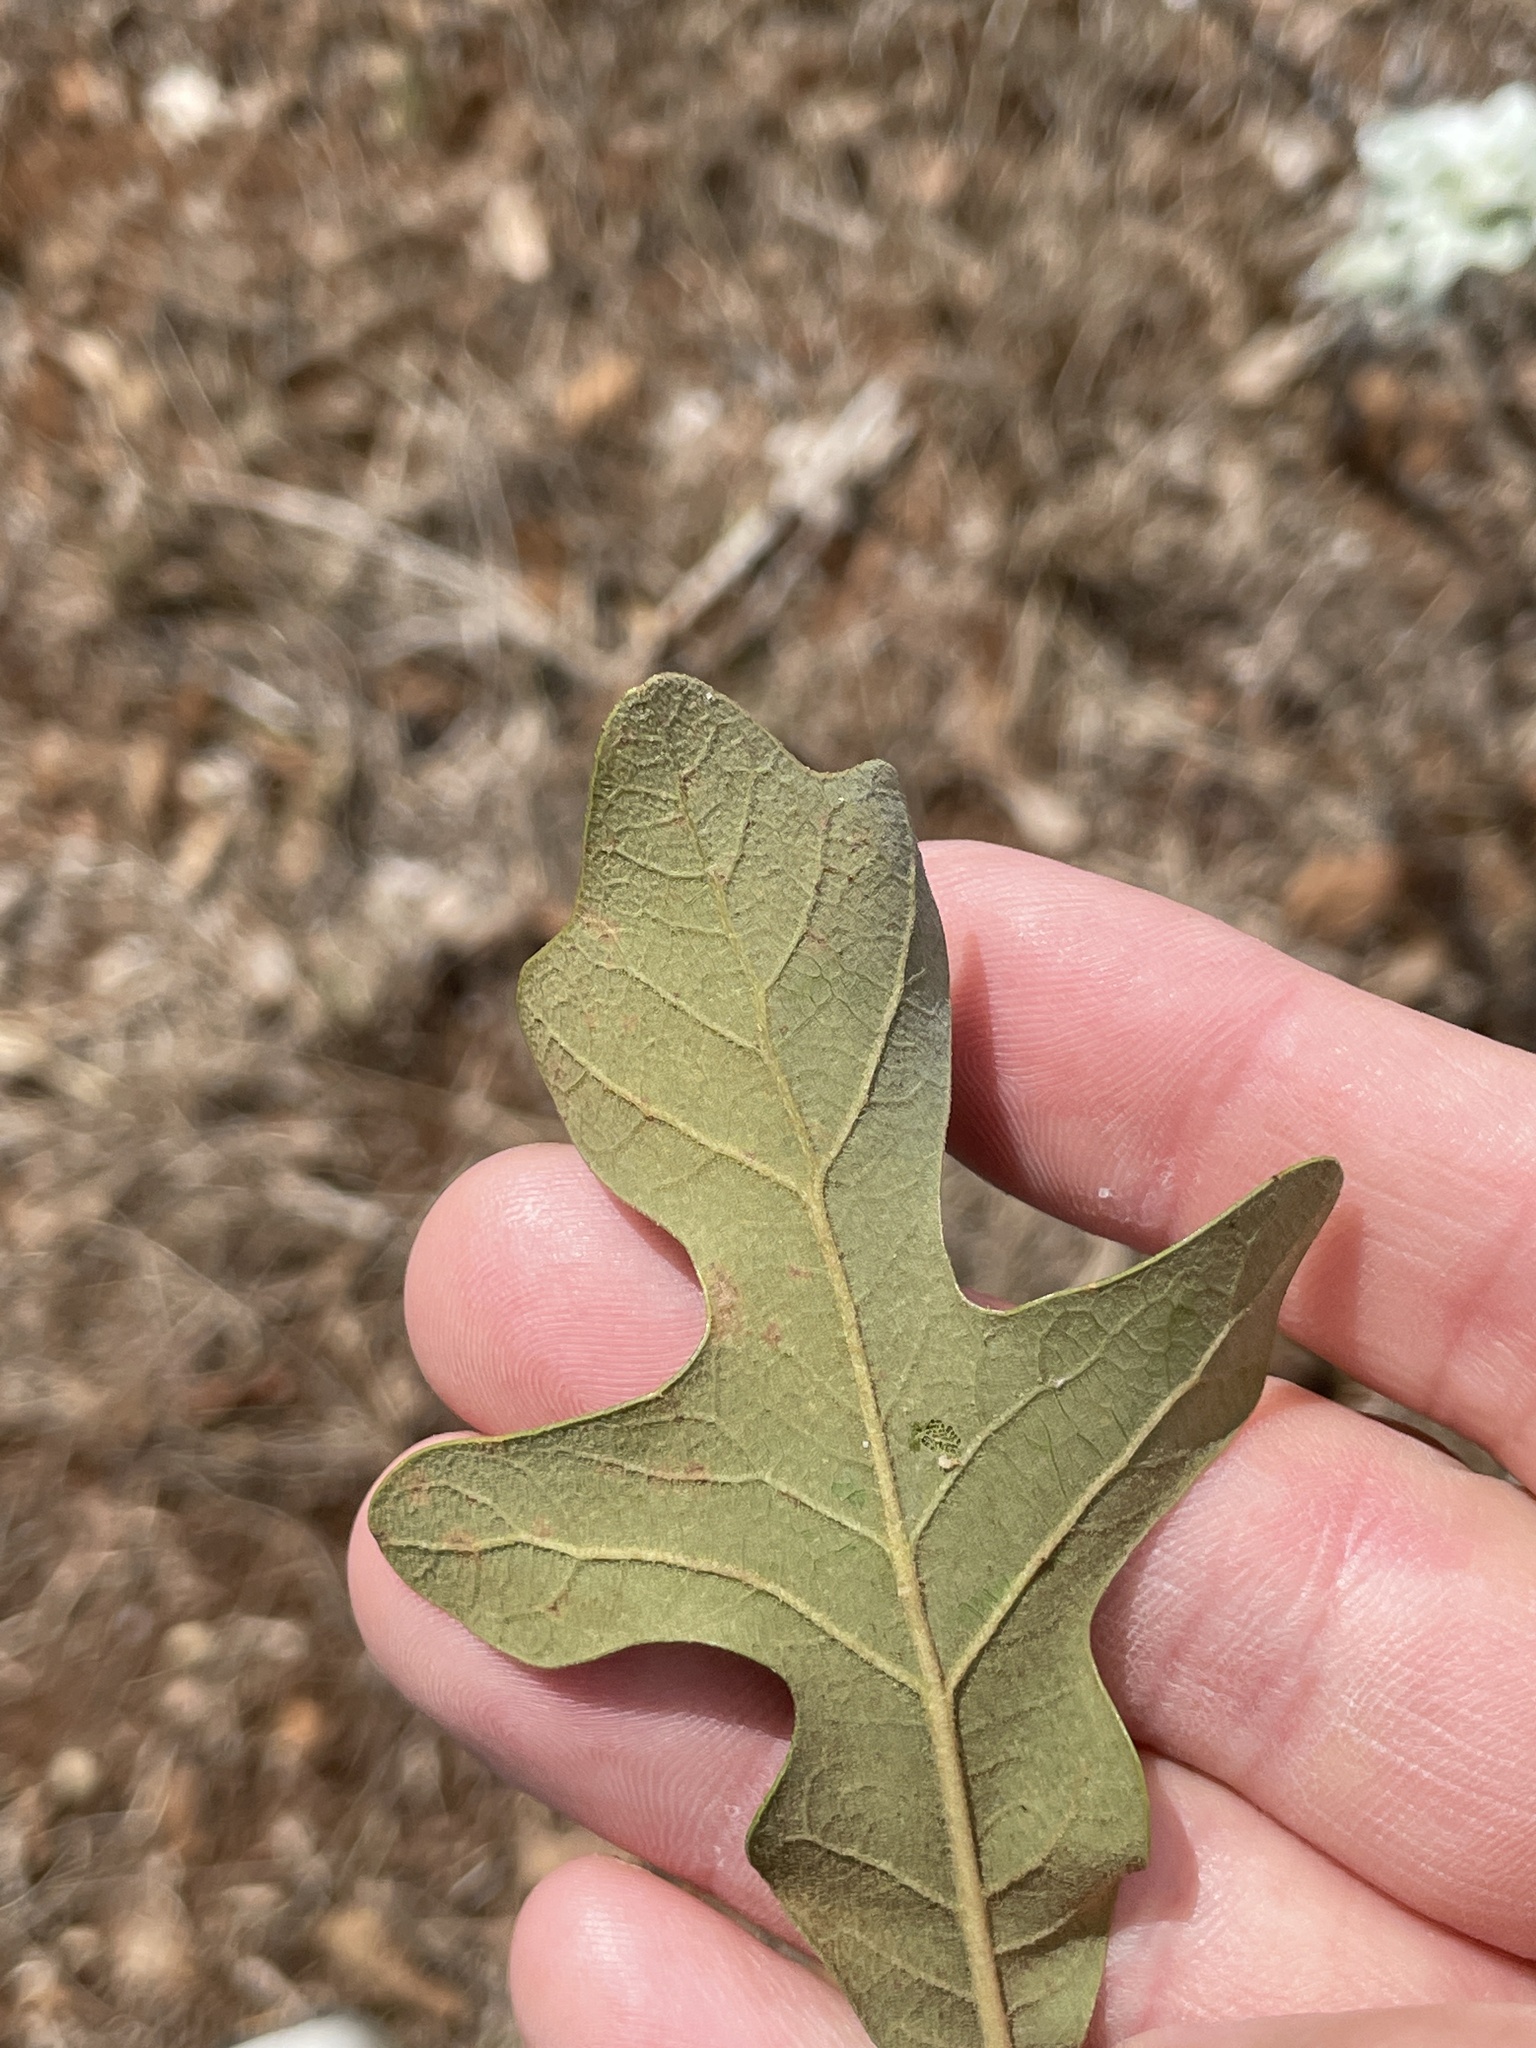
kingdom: Plantae
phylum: Tracheophyta
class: Magnoliopsida
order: Fagales
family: Fagaceae
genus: Quercus
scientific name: Quercus stellata
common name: Post oak
